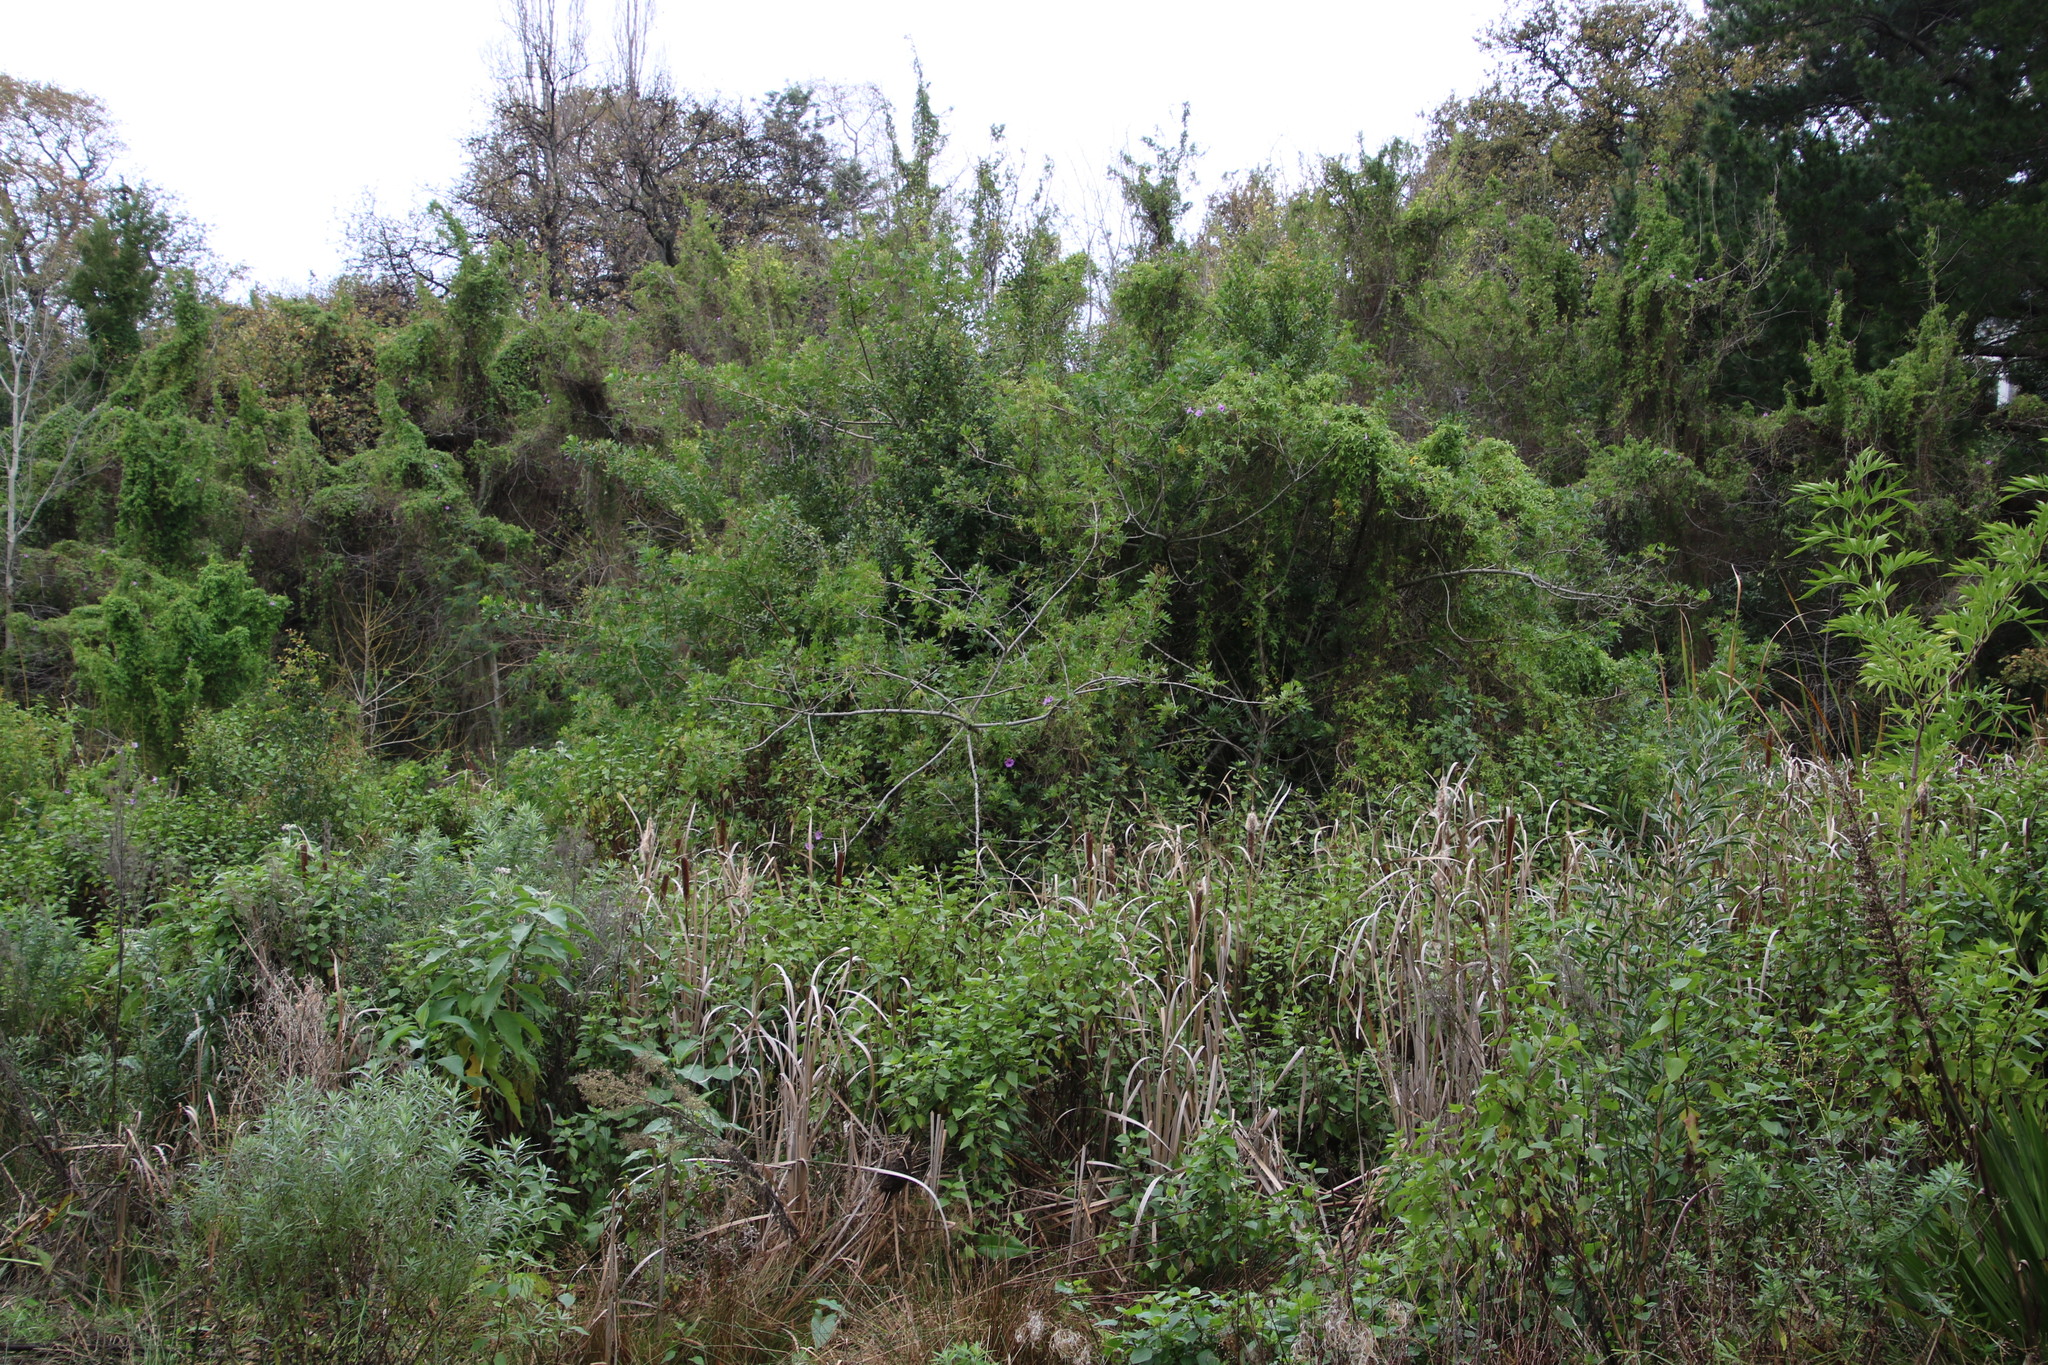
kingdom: Plantae
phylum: Tracheophyta
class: Magnoliopsida
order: Sapindales
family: Anacardiaceae
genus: Schinus
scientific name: Schinus terebinthifolia
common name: Brazilian peppertree
